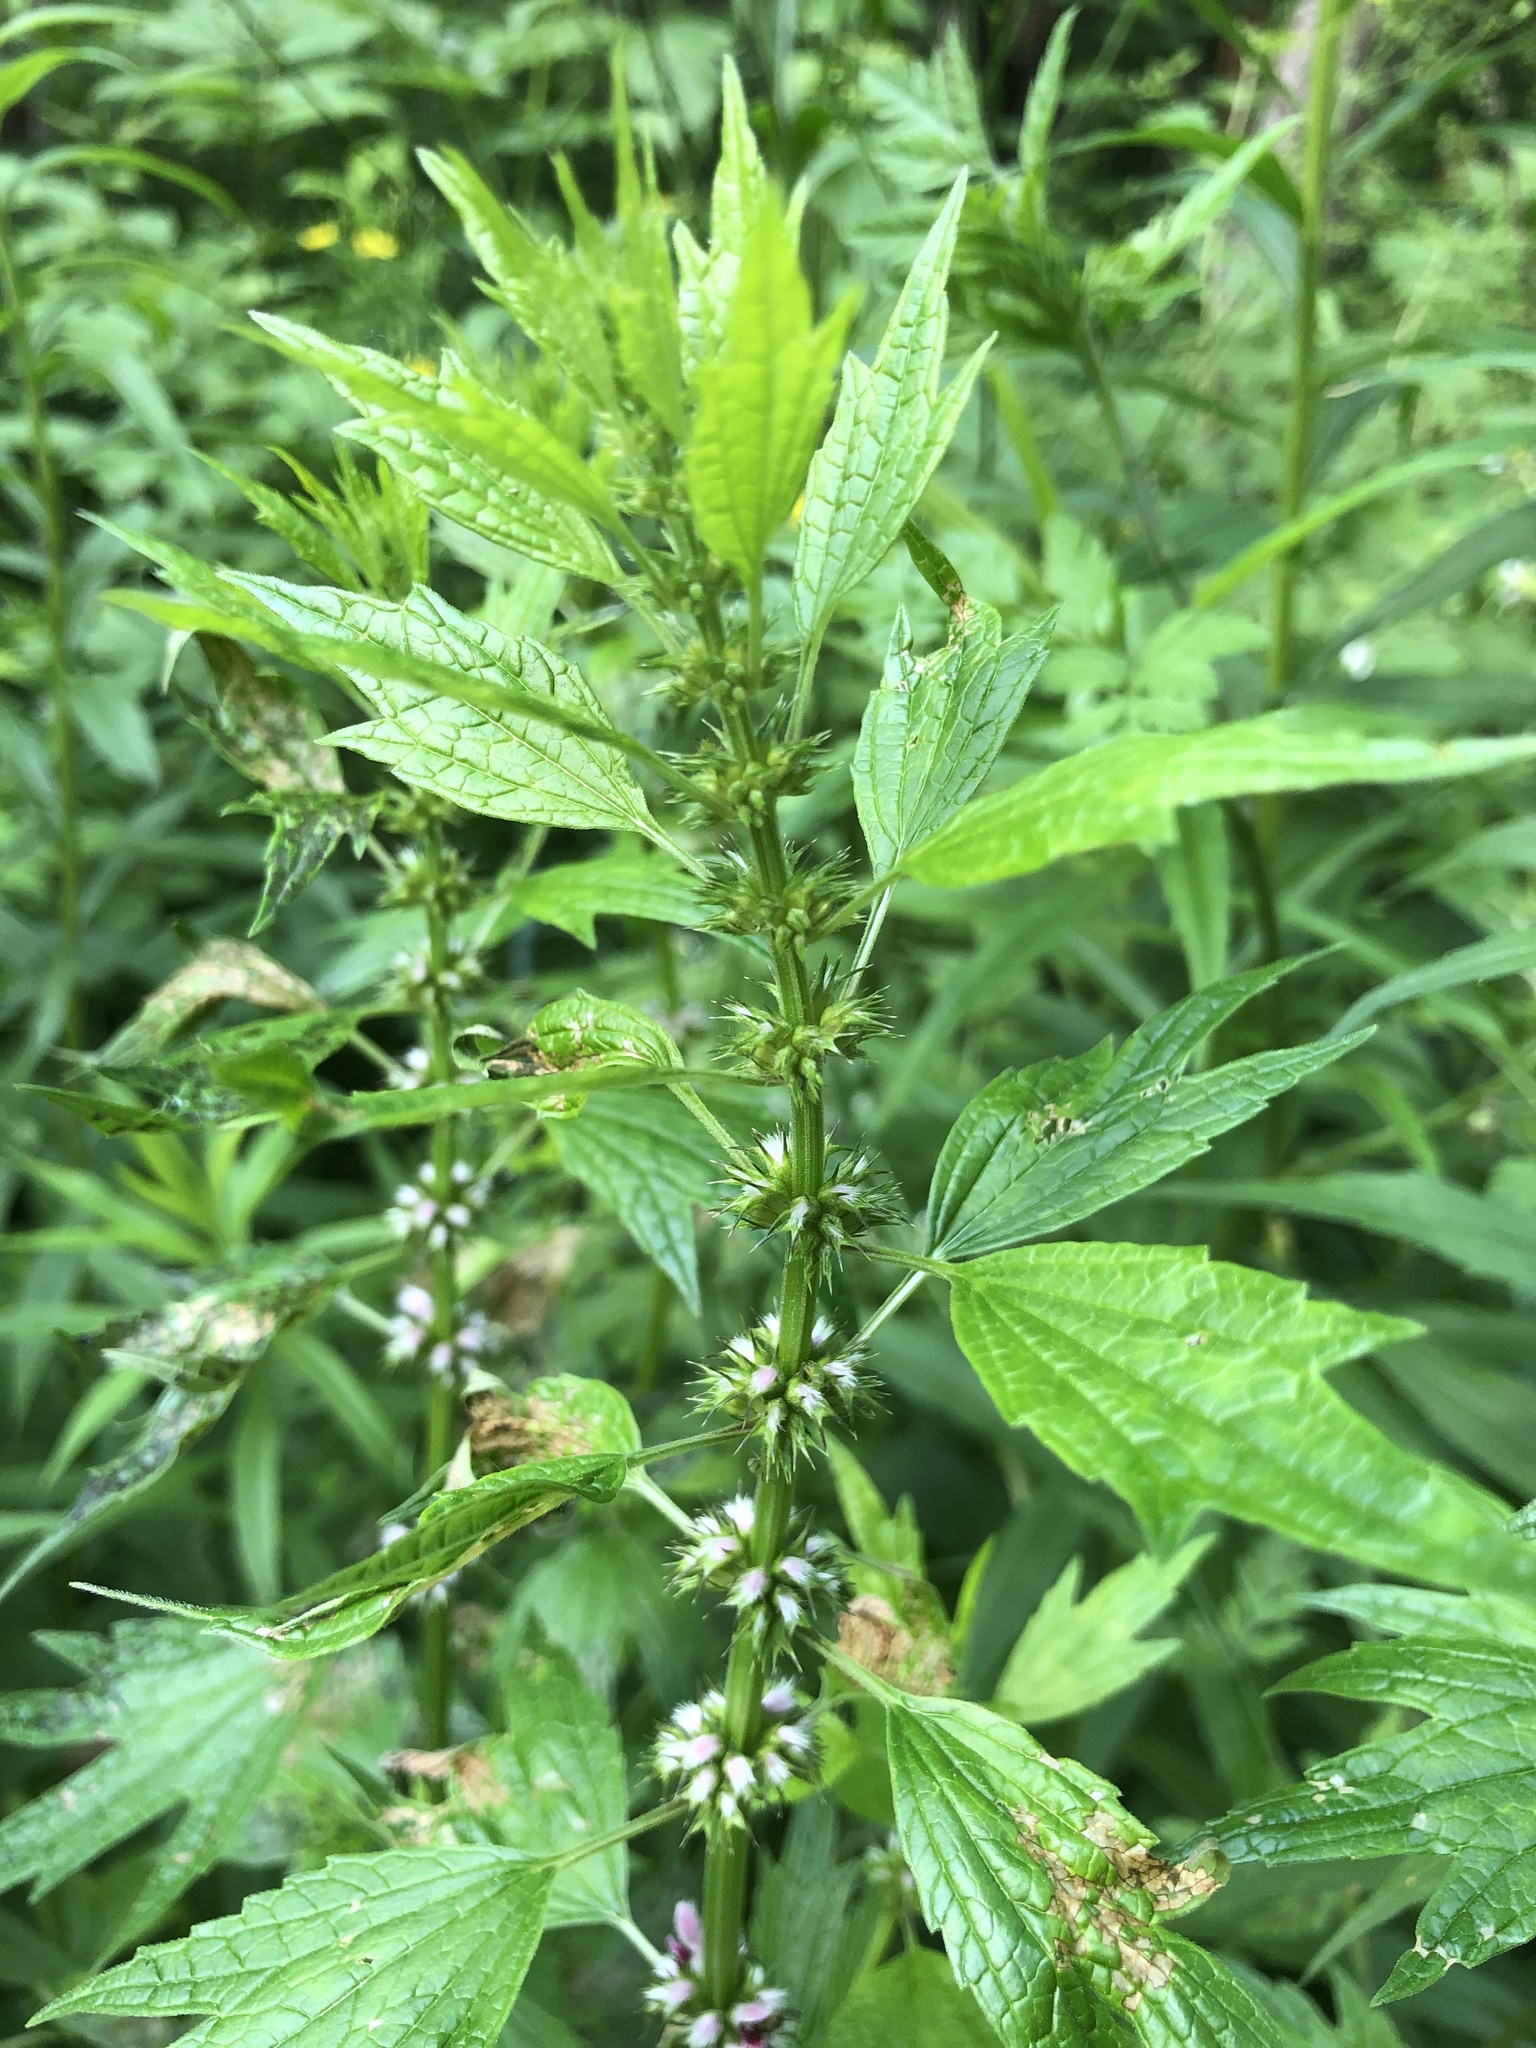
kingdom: Plantae
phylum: Tracheophyta
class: Magnoliopsida
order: Lamiales
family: Lamiaceae
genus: Leonurus
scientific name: Leonurus cardiaca
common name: Motherwort
